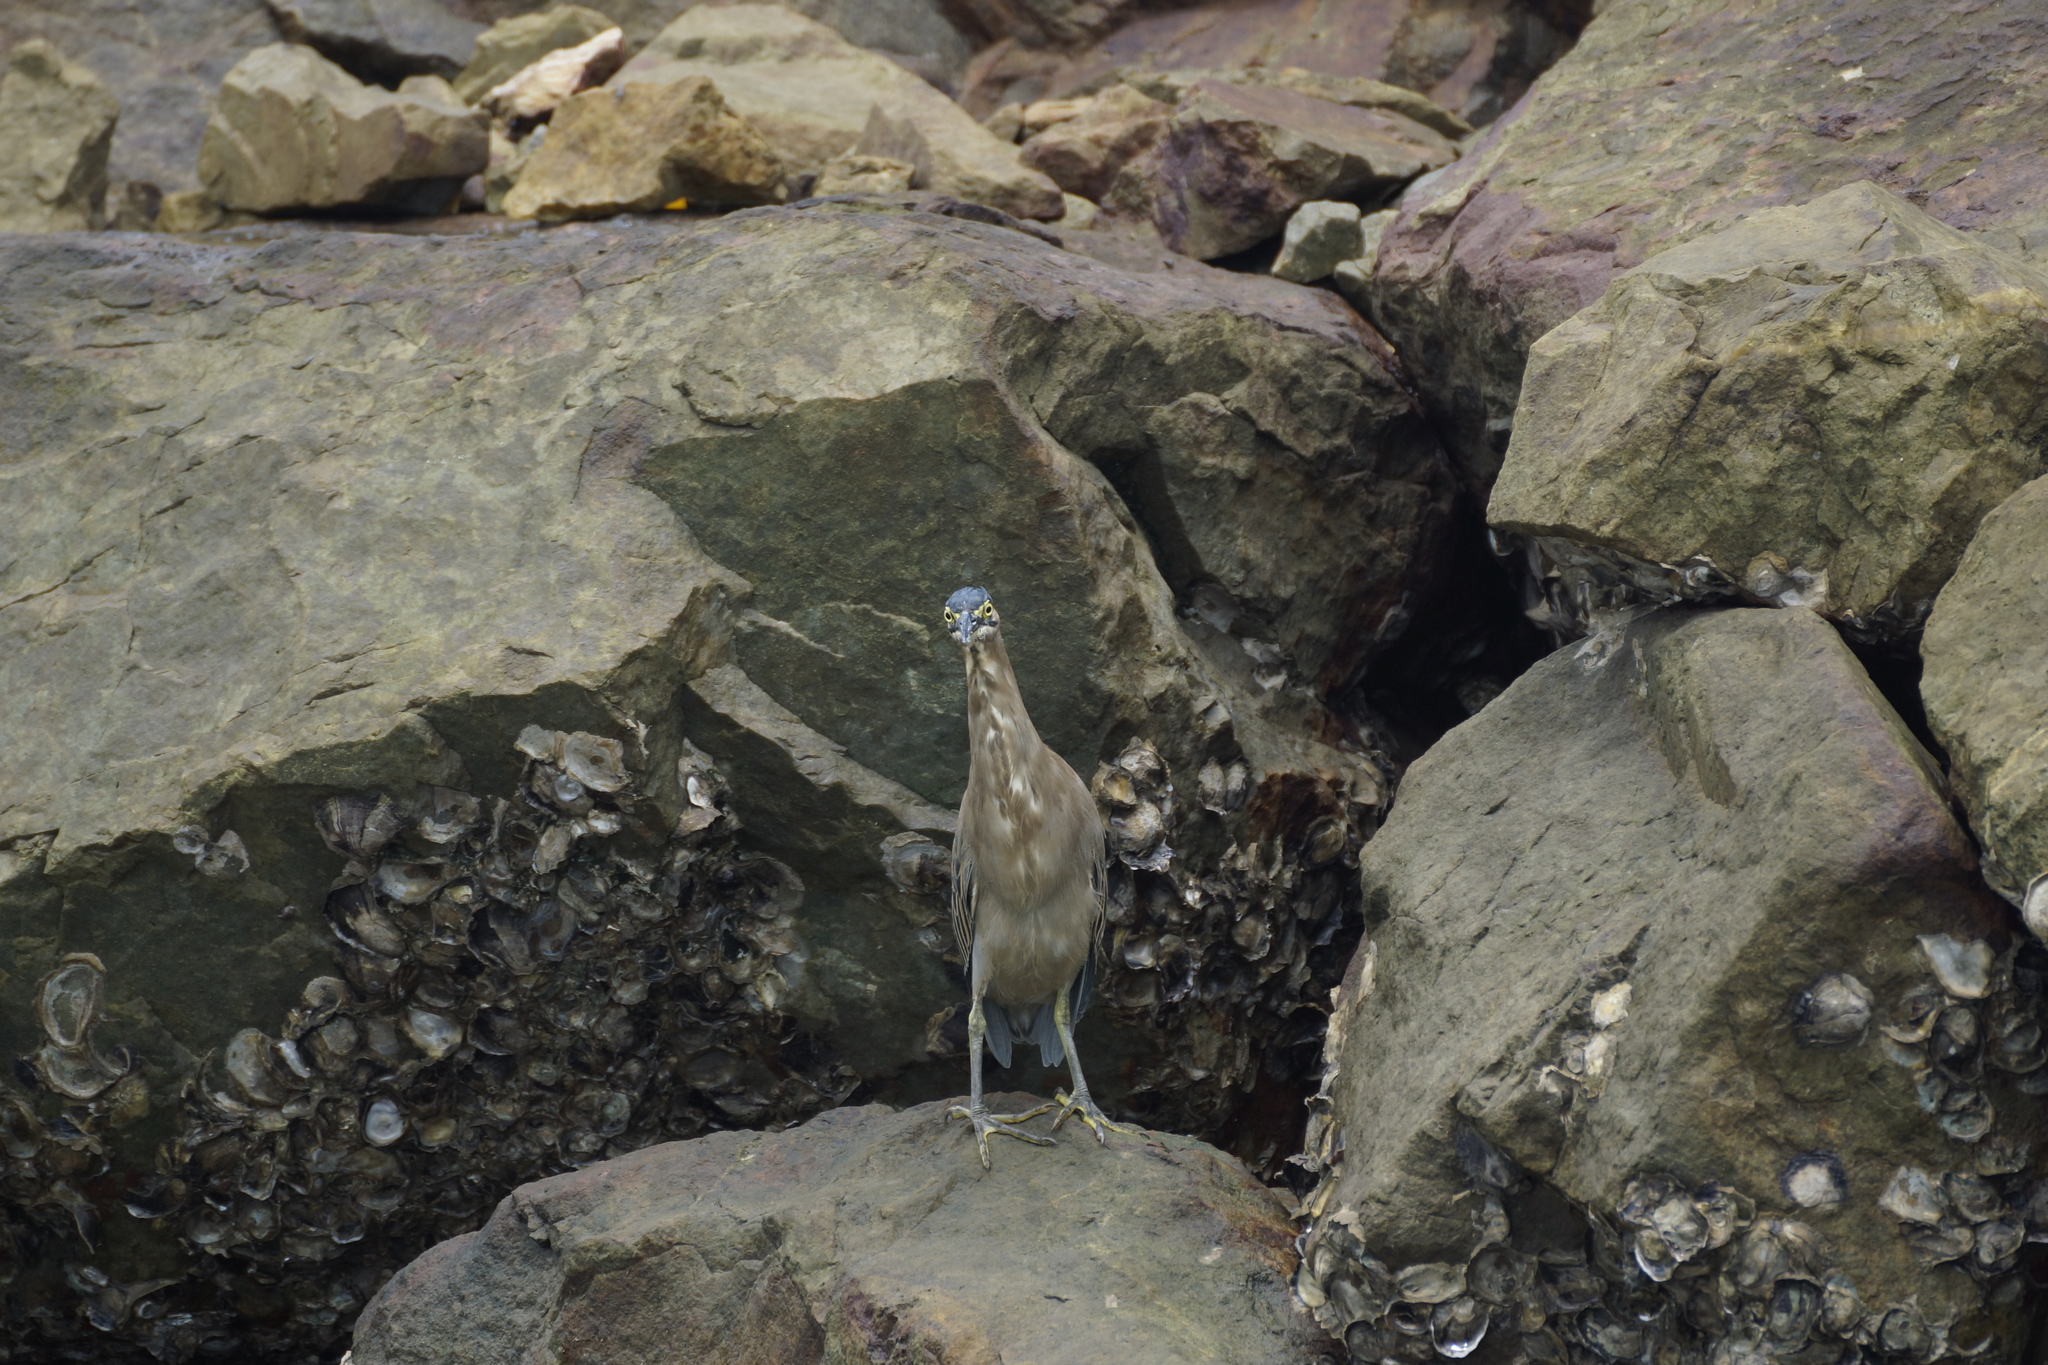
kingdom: Animalia
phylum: Chordata
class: Aves
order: Pelecaniformes
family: Ardeidae
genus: Butorides
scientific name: Butorides striata
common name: Striated heron
